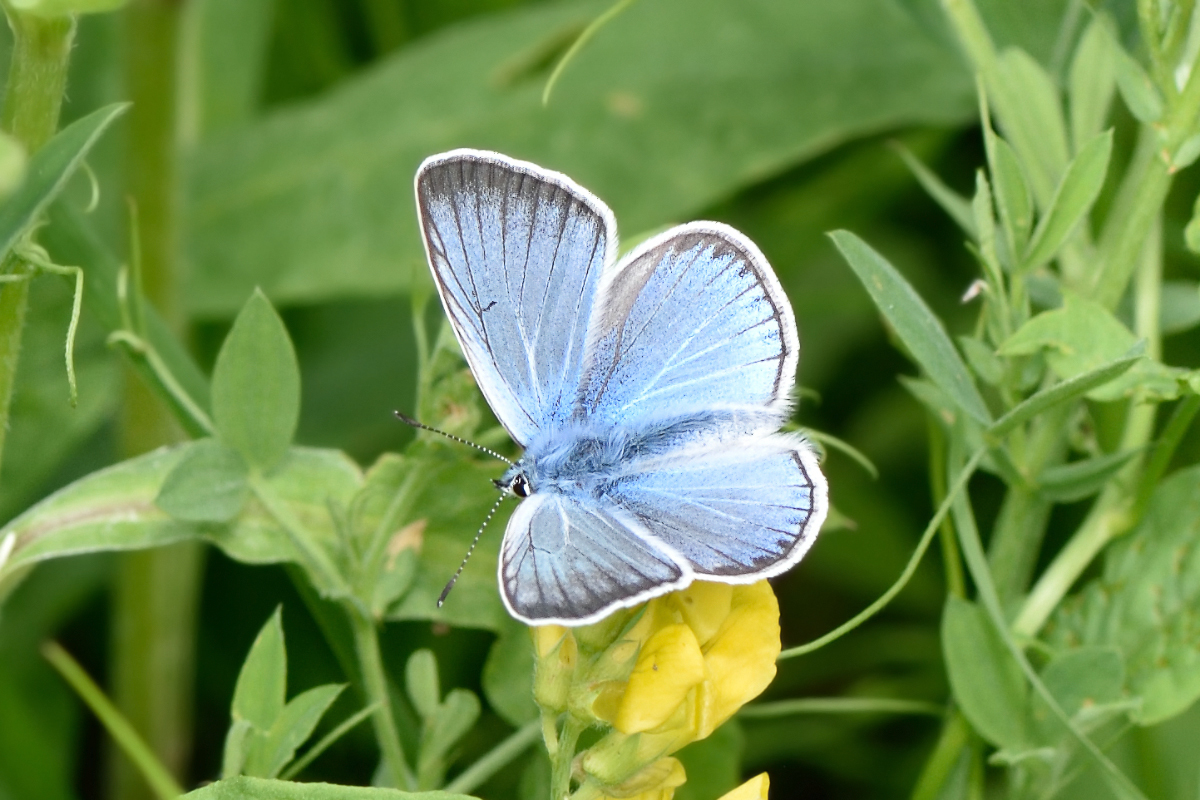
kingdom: Animalia
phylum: Arthropoda
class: Insecta
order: Lepidoptera
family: Lycaenidae
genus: Plebejus
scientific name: Plebejus amanda
